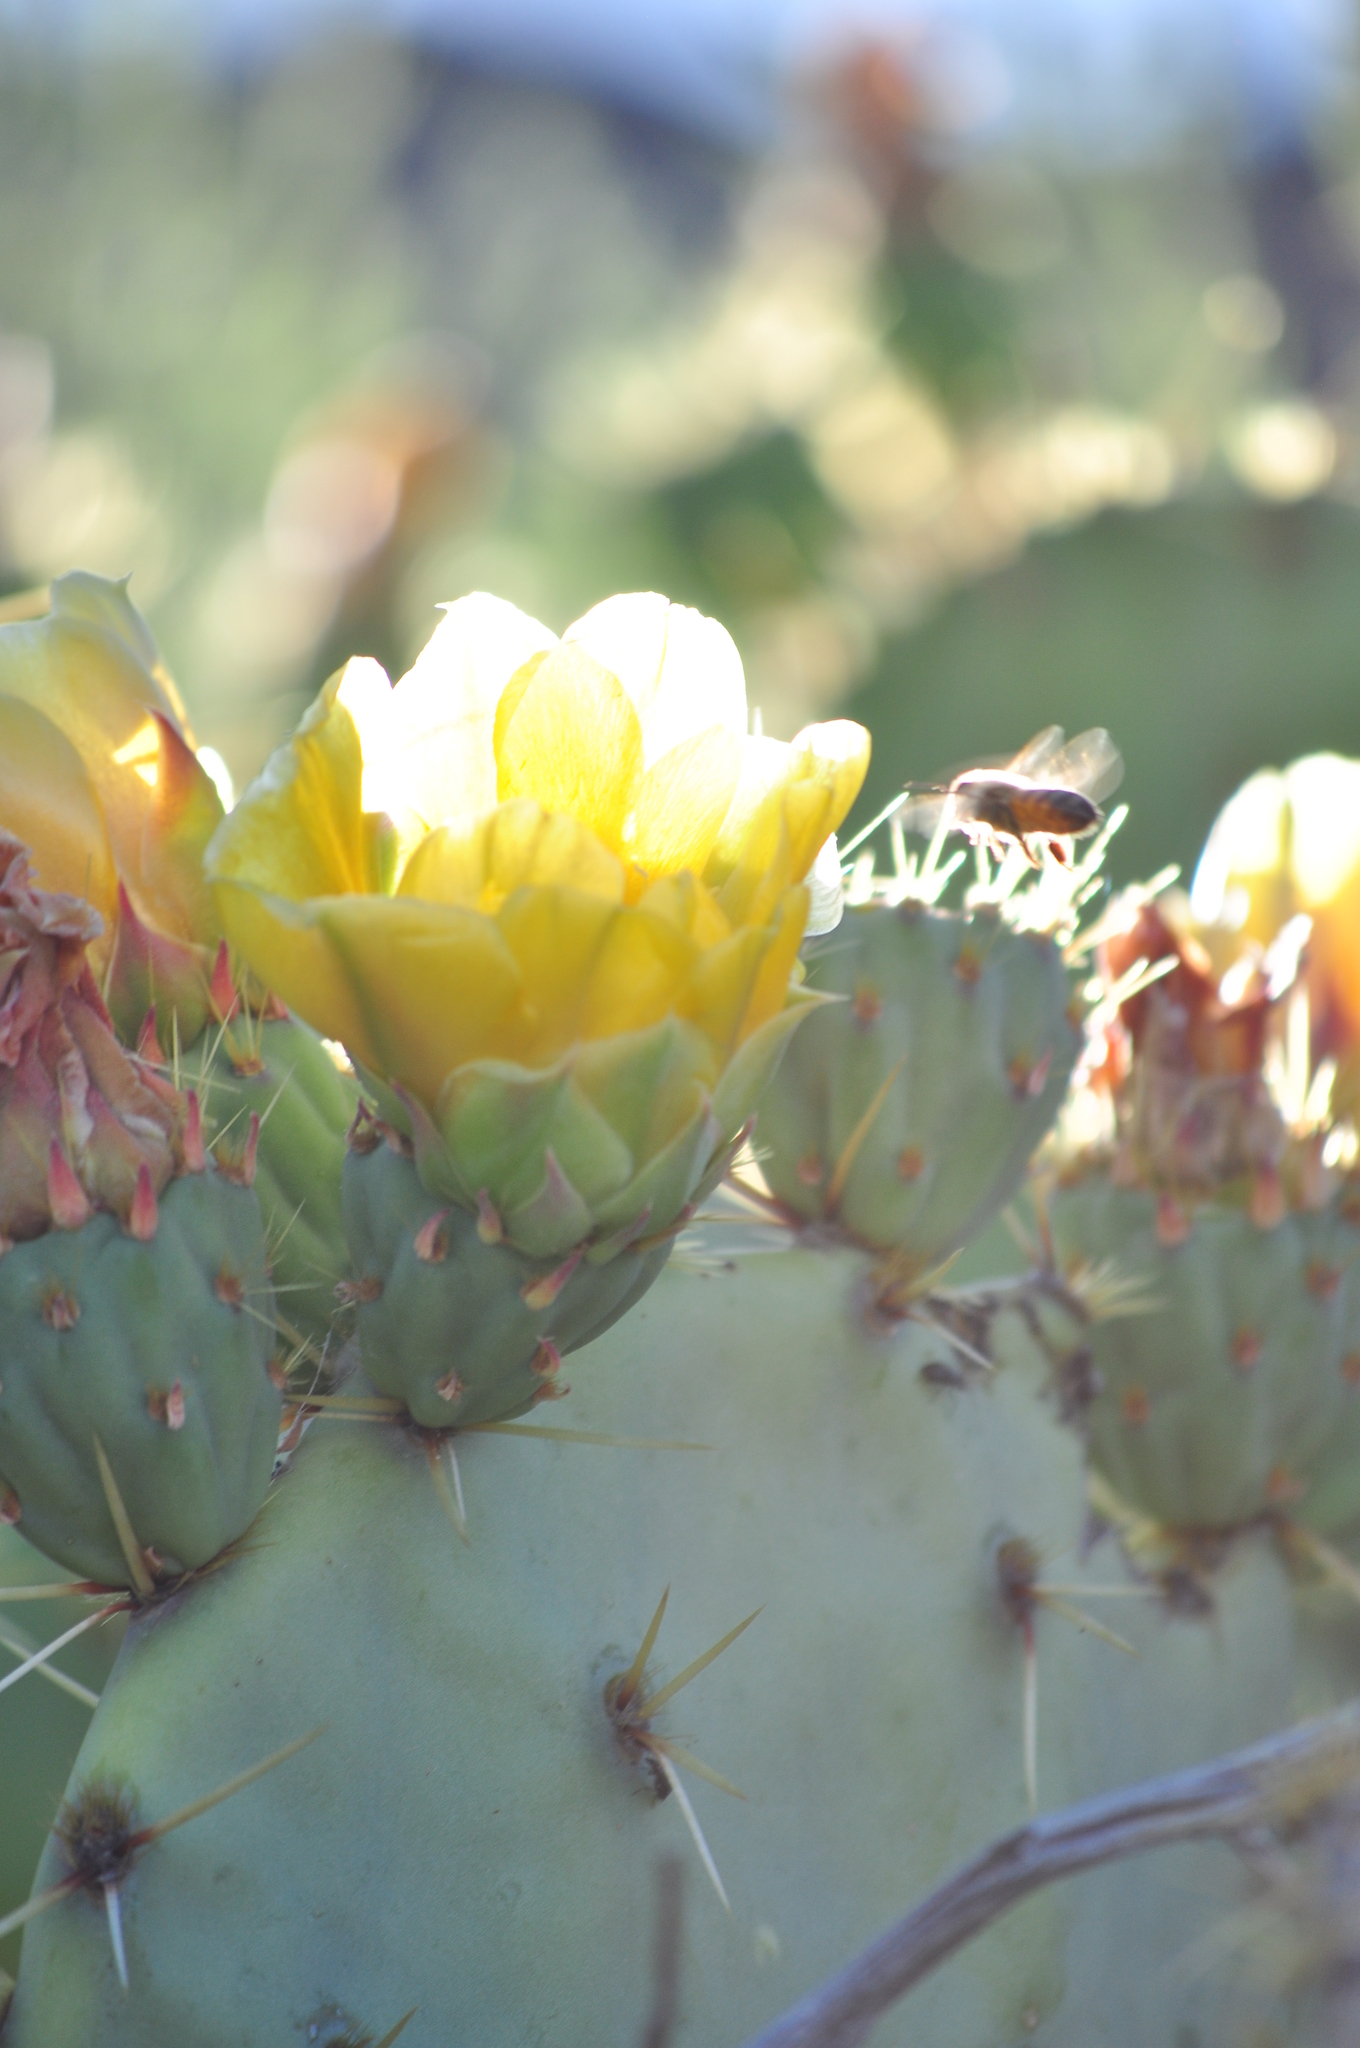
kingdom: Animalia
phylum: Arthropoda
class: Insecta
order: Hymenoptera
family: Apidae
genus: Apis
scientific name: Apis mellifera
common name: Honey bee
